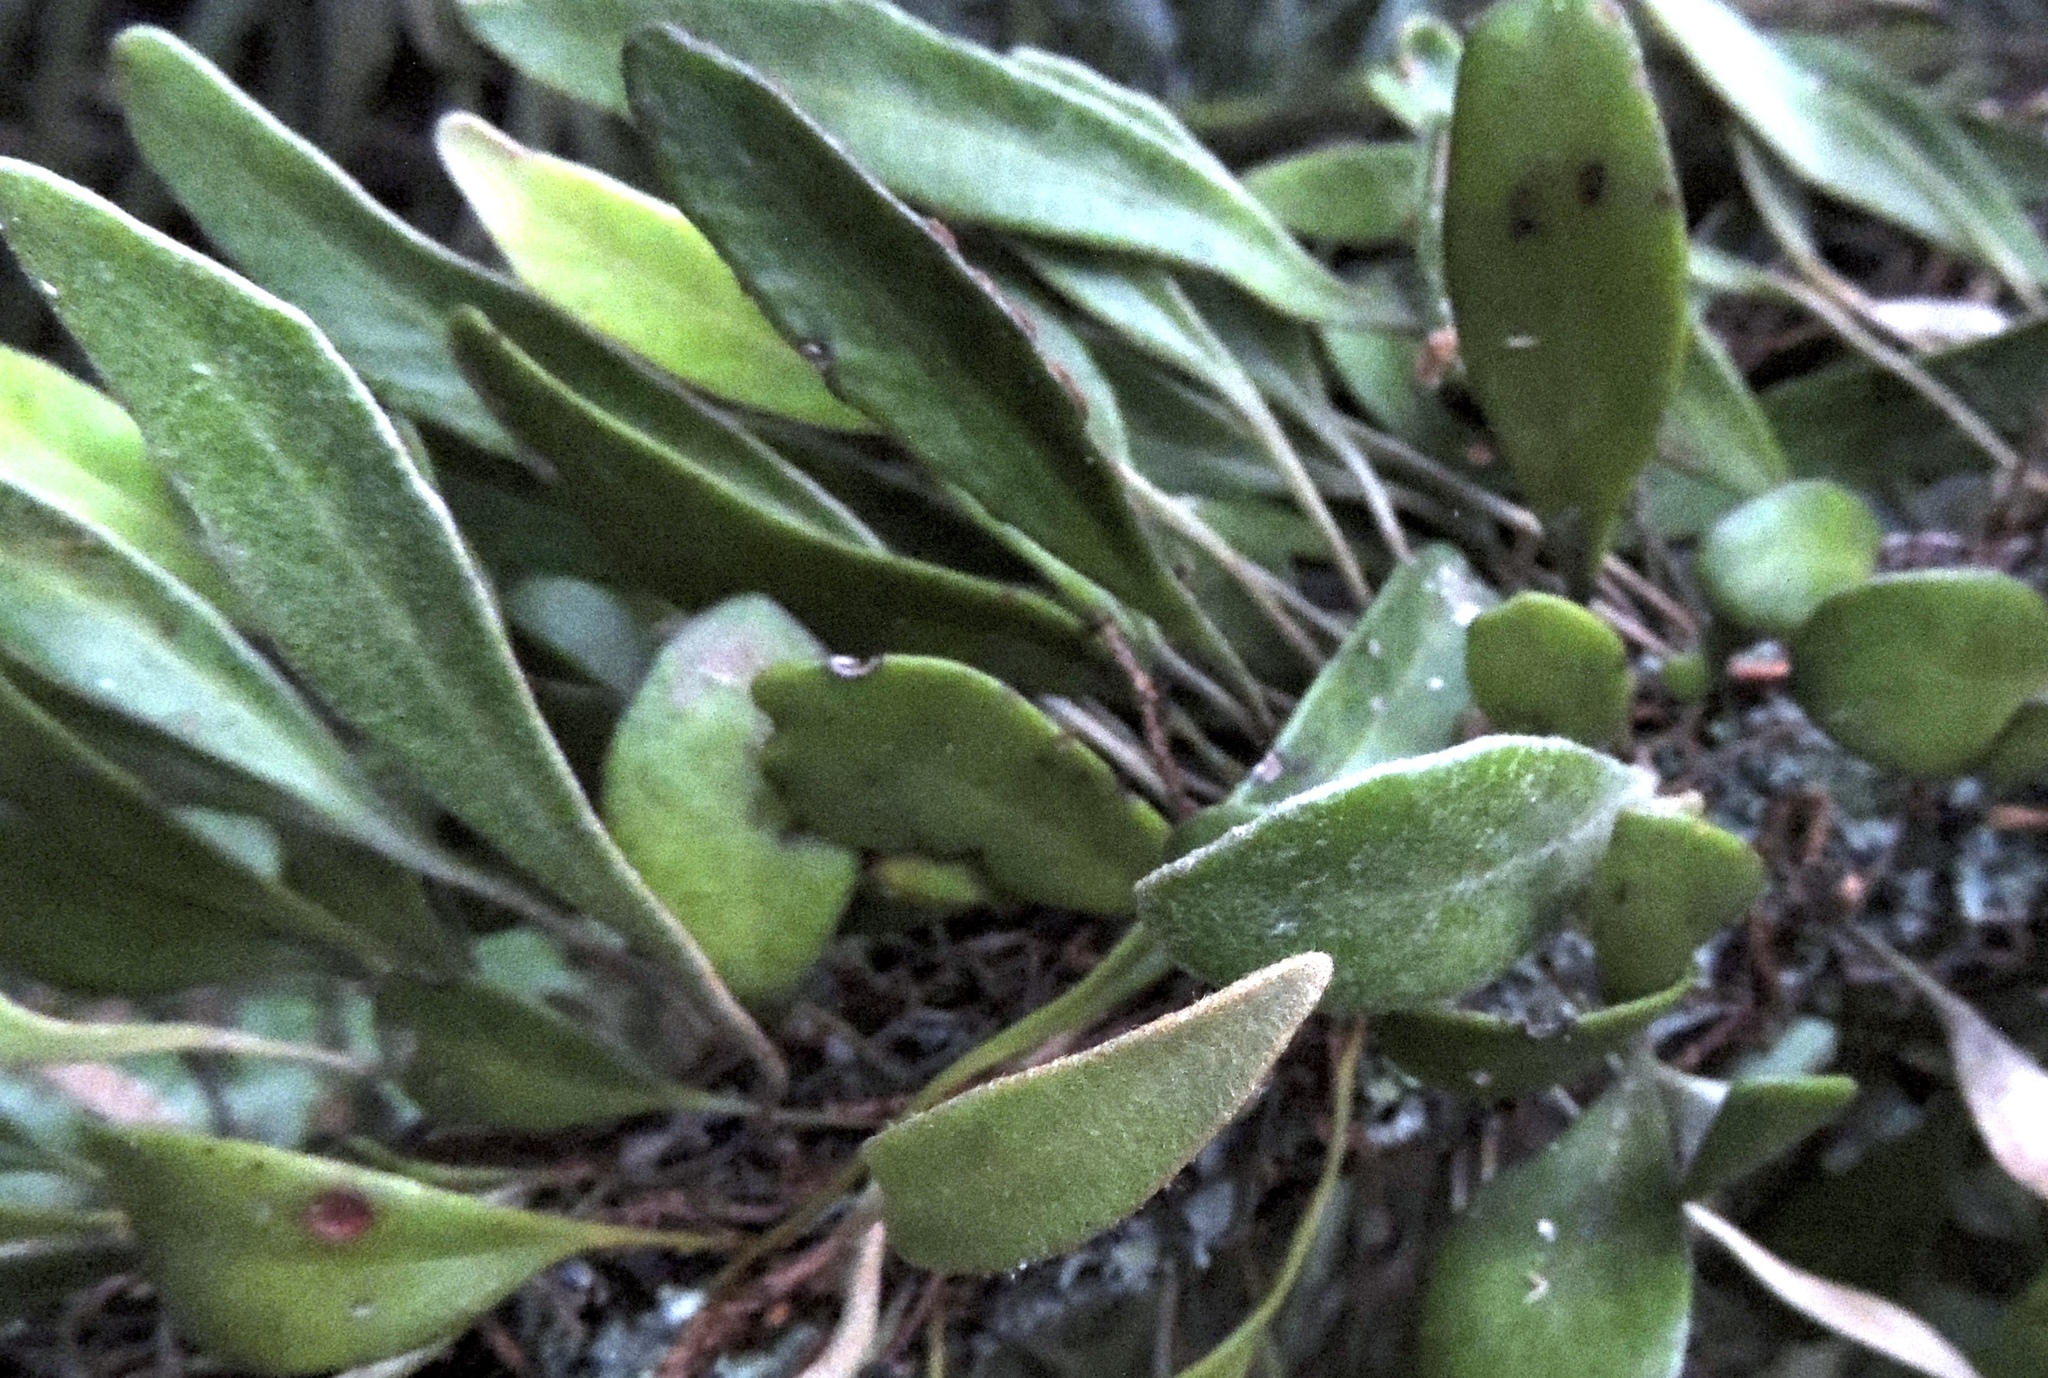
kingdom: Plantae
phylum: Tracheophyta
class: Polypodiopsida
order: Polypodiales
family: Polypodiaceae
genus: Pyrrosia
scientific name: Pyrrosia eleagnifolia
